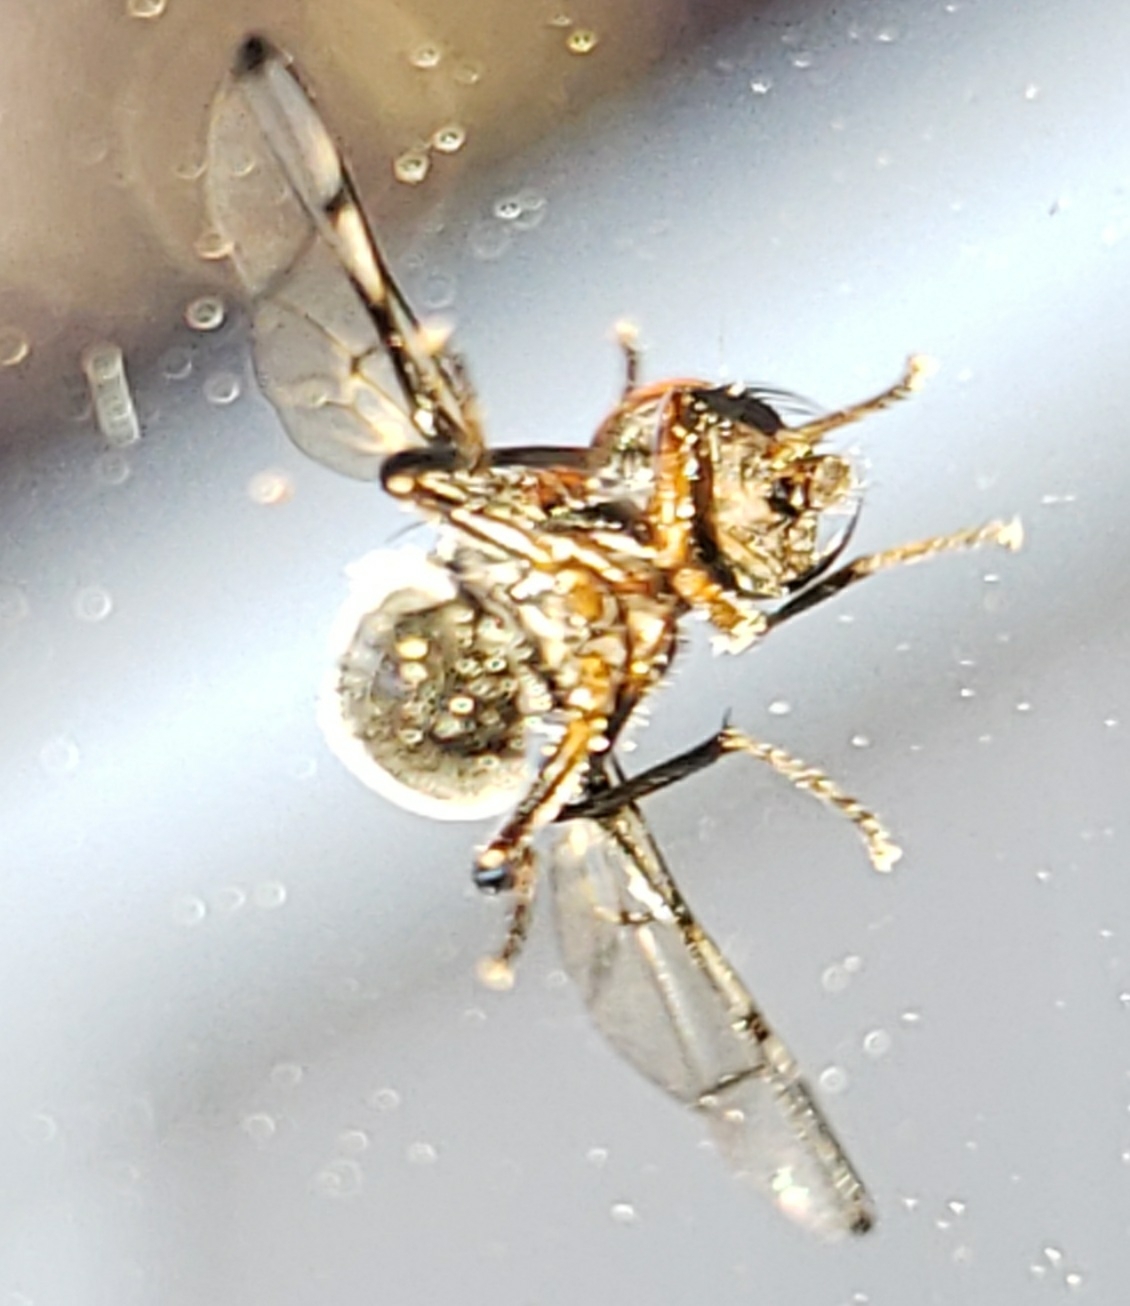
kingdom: Animalia
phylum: Arthropoda
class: Insecta
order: Diptera
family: Platystomatidae
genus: Pogonortalis
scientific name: Pogonortalis doclea
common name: Boatman fly
